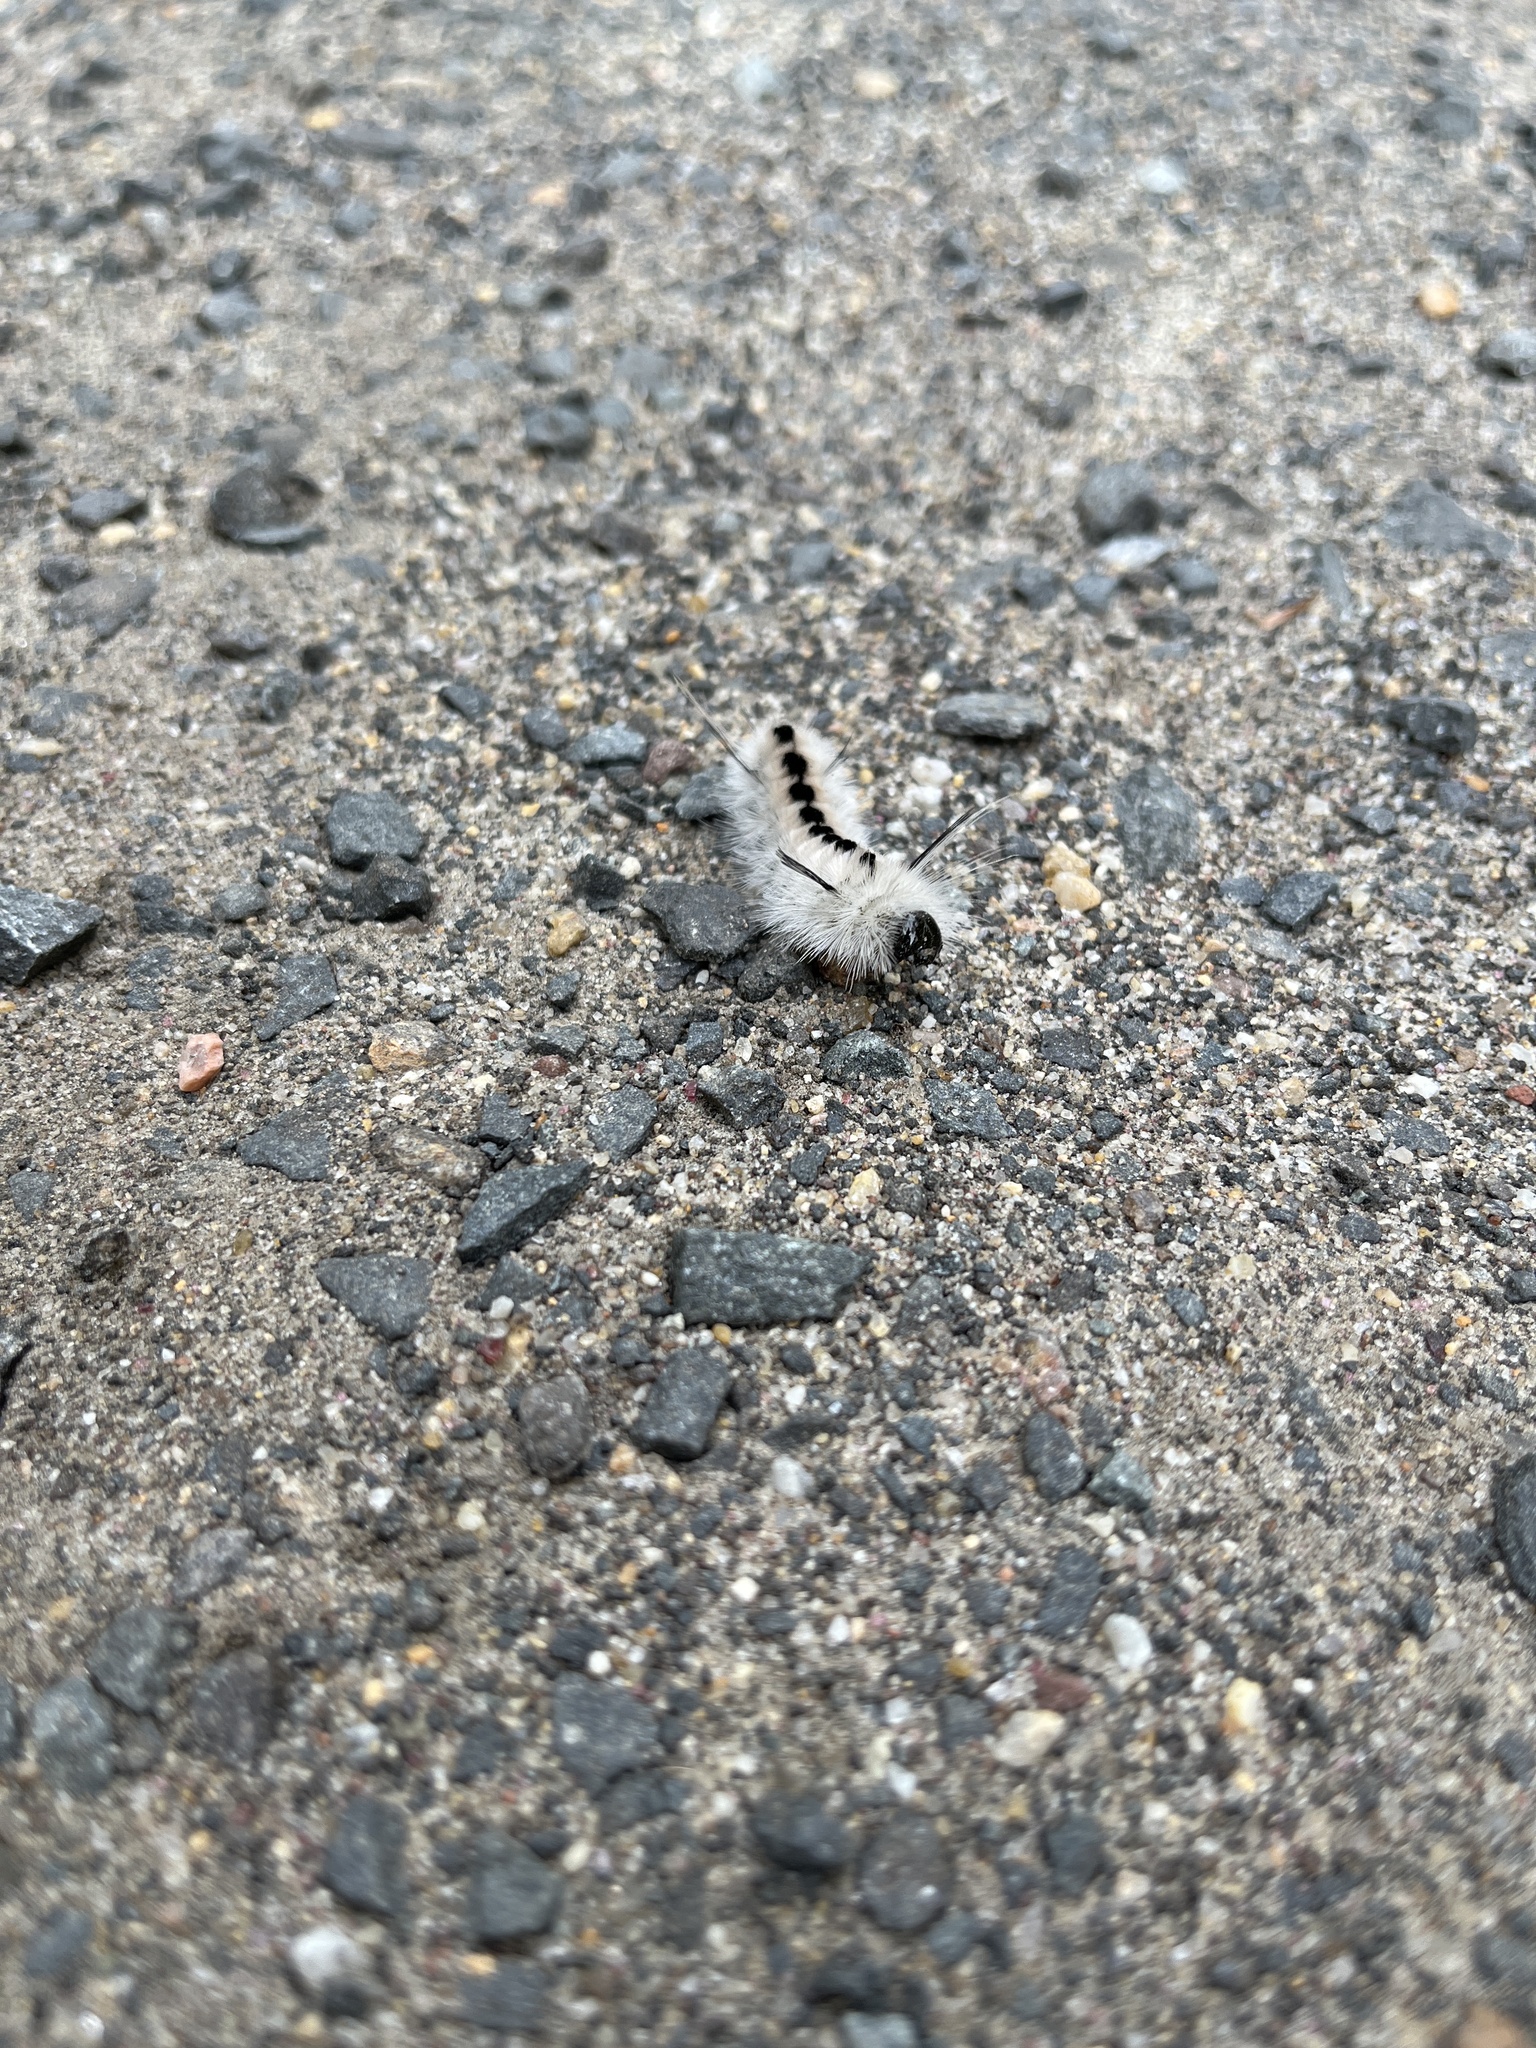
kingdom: Animalia
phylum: Arthropoda
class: Insecta
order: Lepidoptera
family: Erebidae
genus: Lophocampa
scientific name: Lophocampa caryae
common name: Hickory tussock moth
